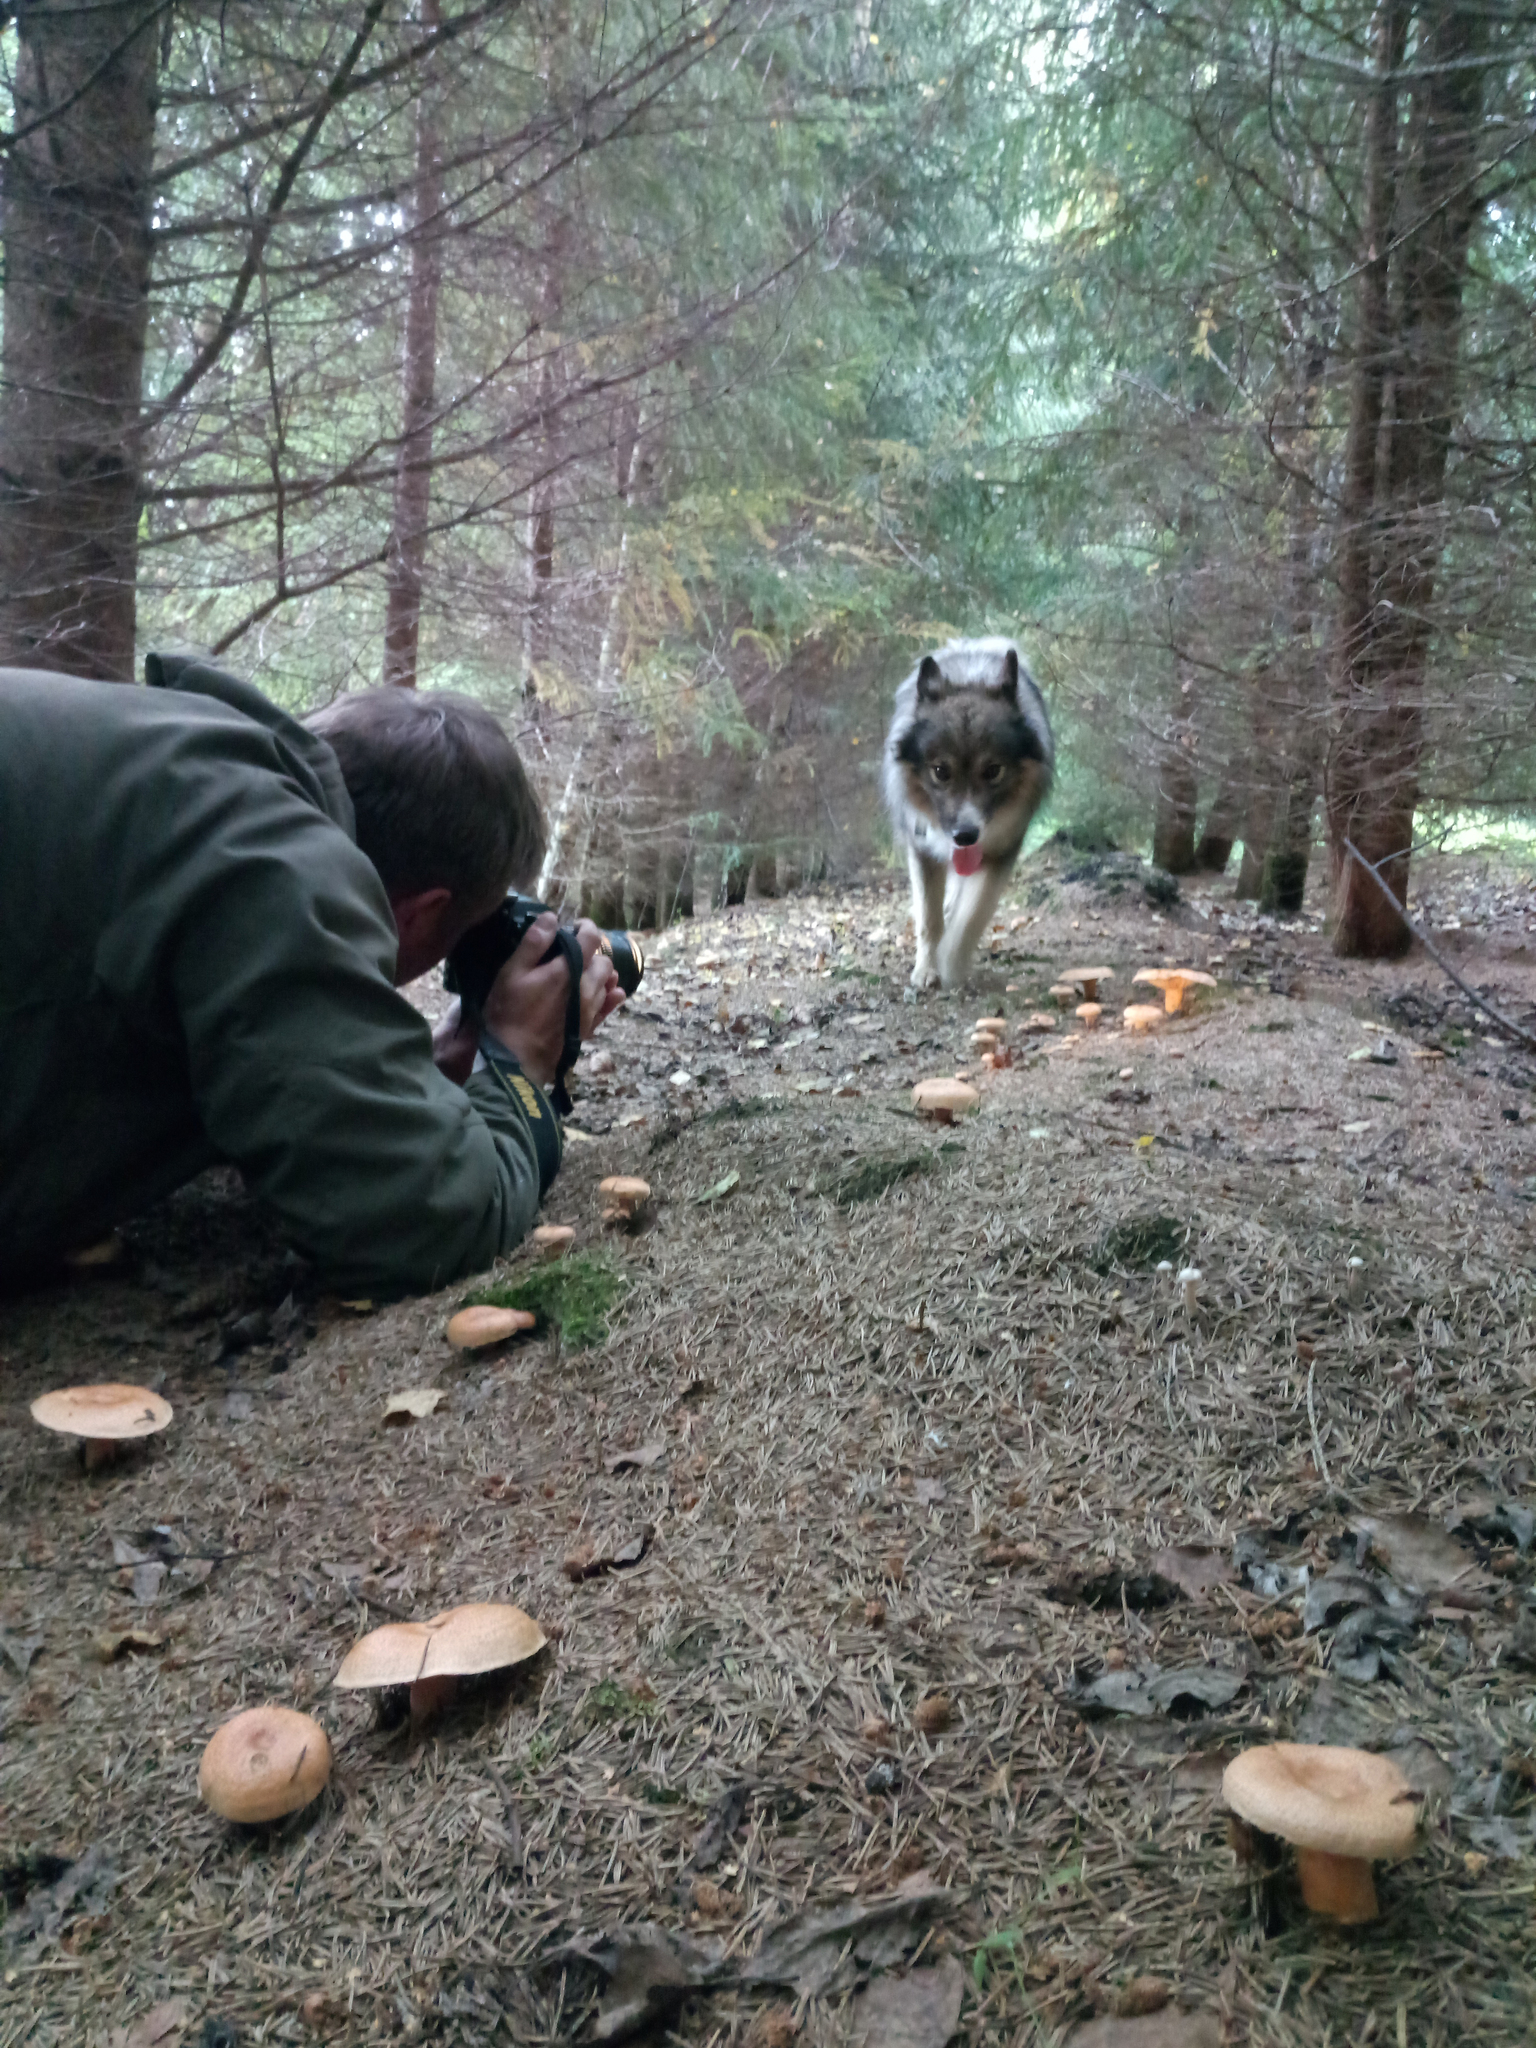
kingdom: Fungi
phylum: Basidiomycota
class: Agaricomycetes
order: Russulales
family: Russulaceae
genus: Lactarius
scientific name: Lactarius deterrimus
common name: False saffron milkcap
